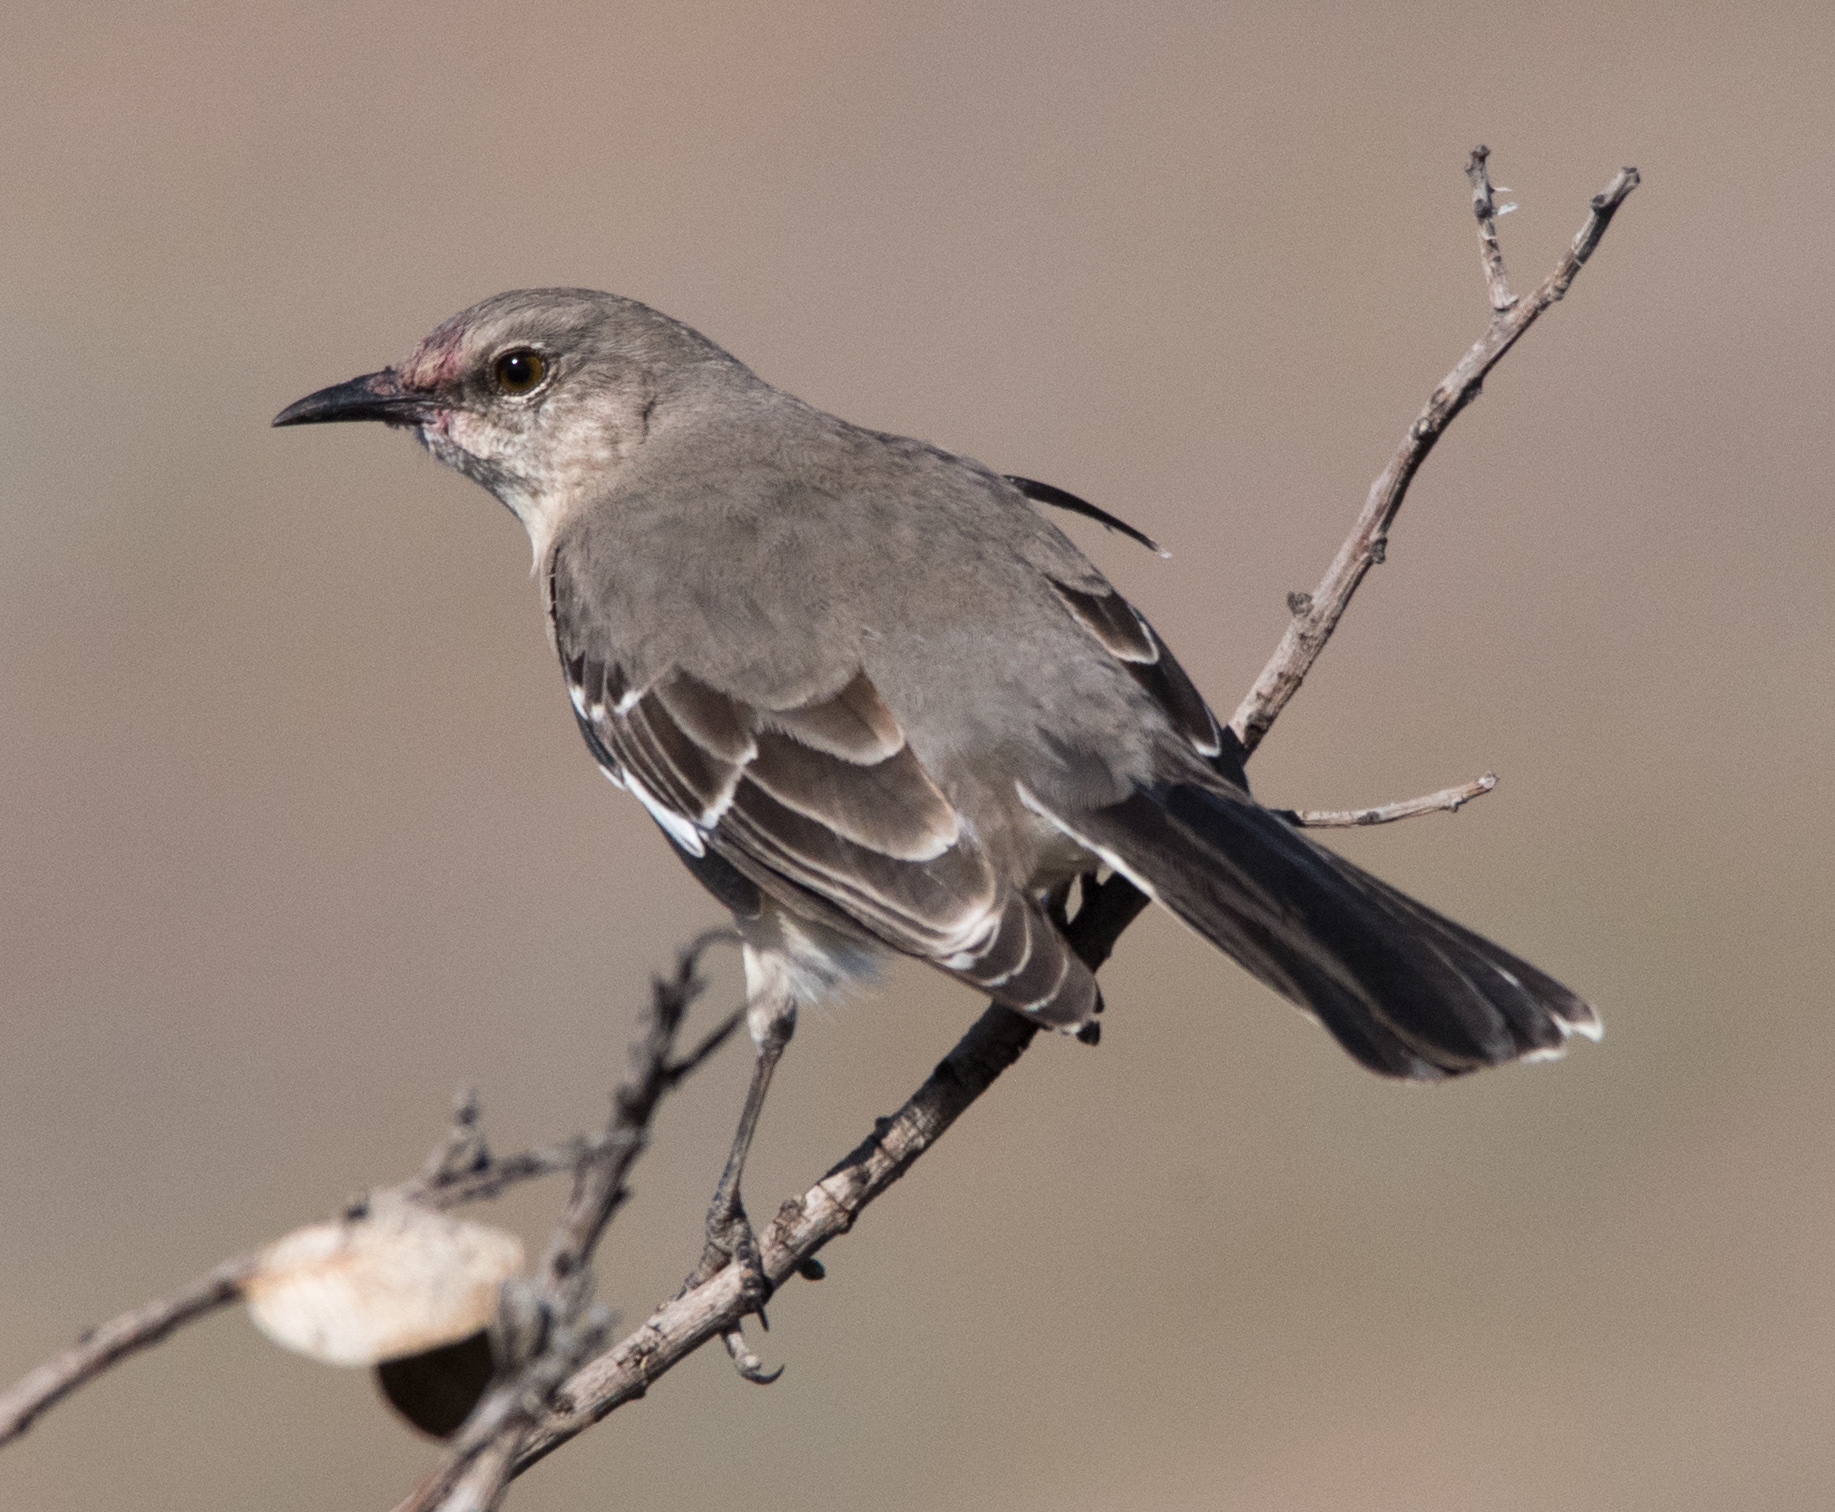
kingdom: Animalia
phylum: Chordata
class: Aves
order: Passeriformes
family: Mimidae
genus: Mimus
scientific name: Mimus polyglottos
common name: Northern mockingbird
